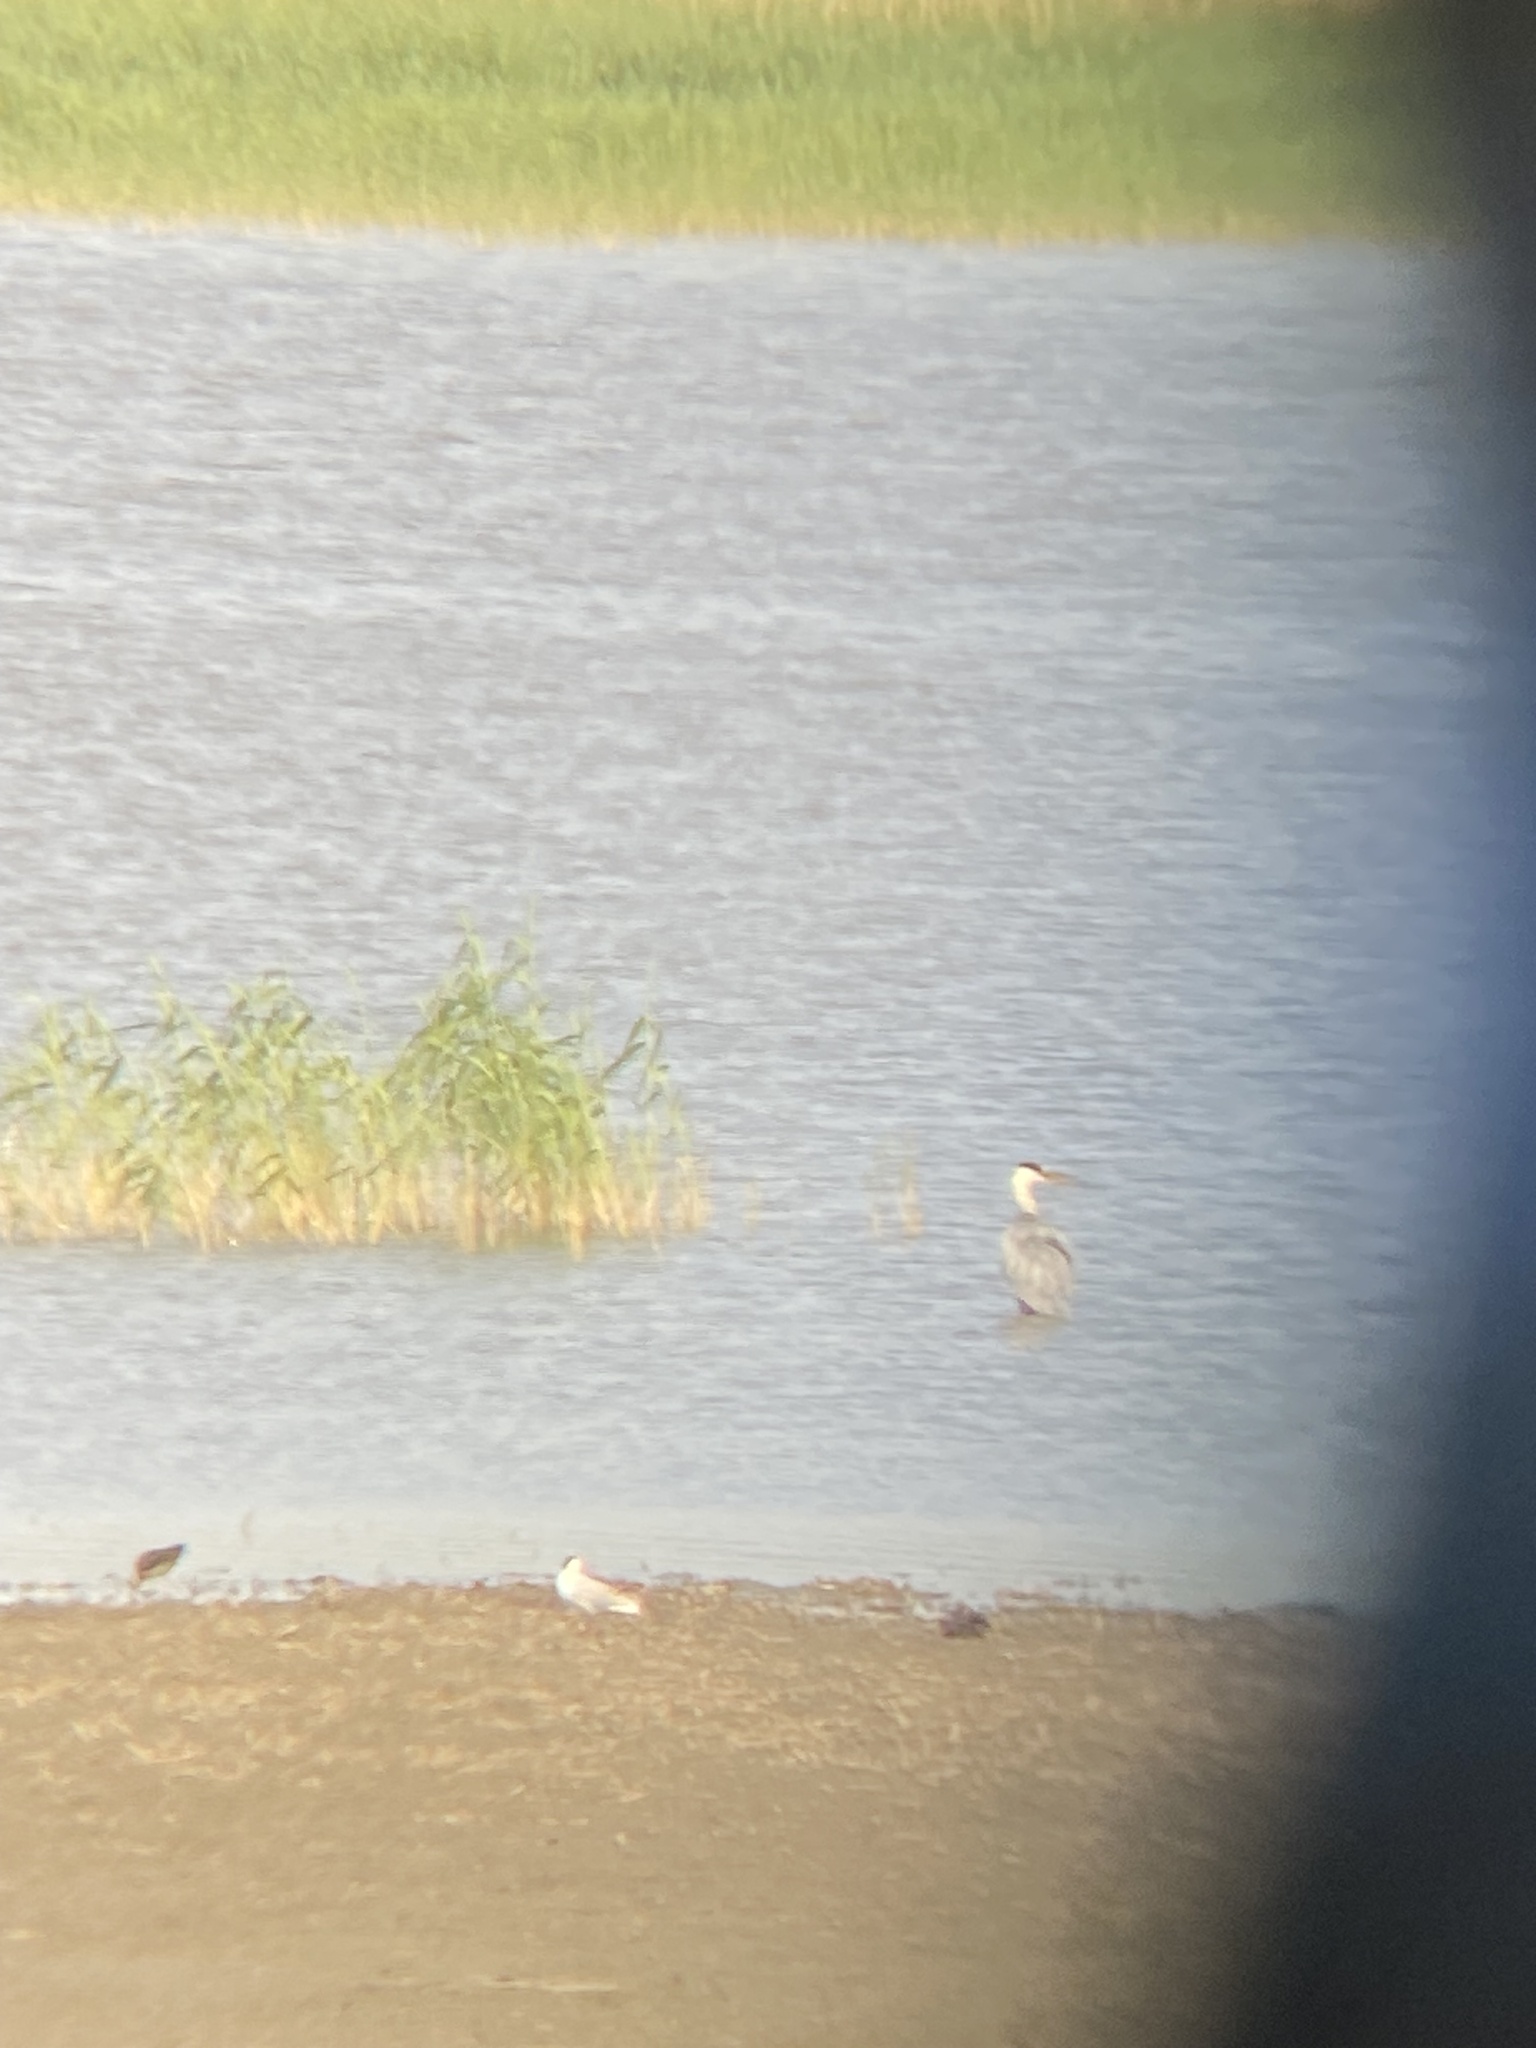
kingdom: Animalia
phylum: Chordata
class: Aves
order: Pelecaniformes
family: Ardeidae
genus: Ardea
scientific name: Ardea cinerea
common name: Grey heron
